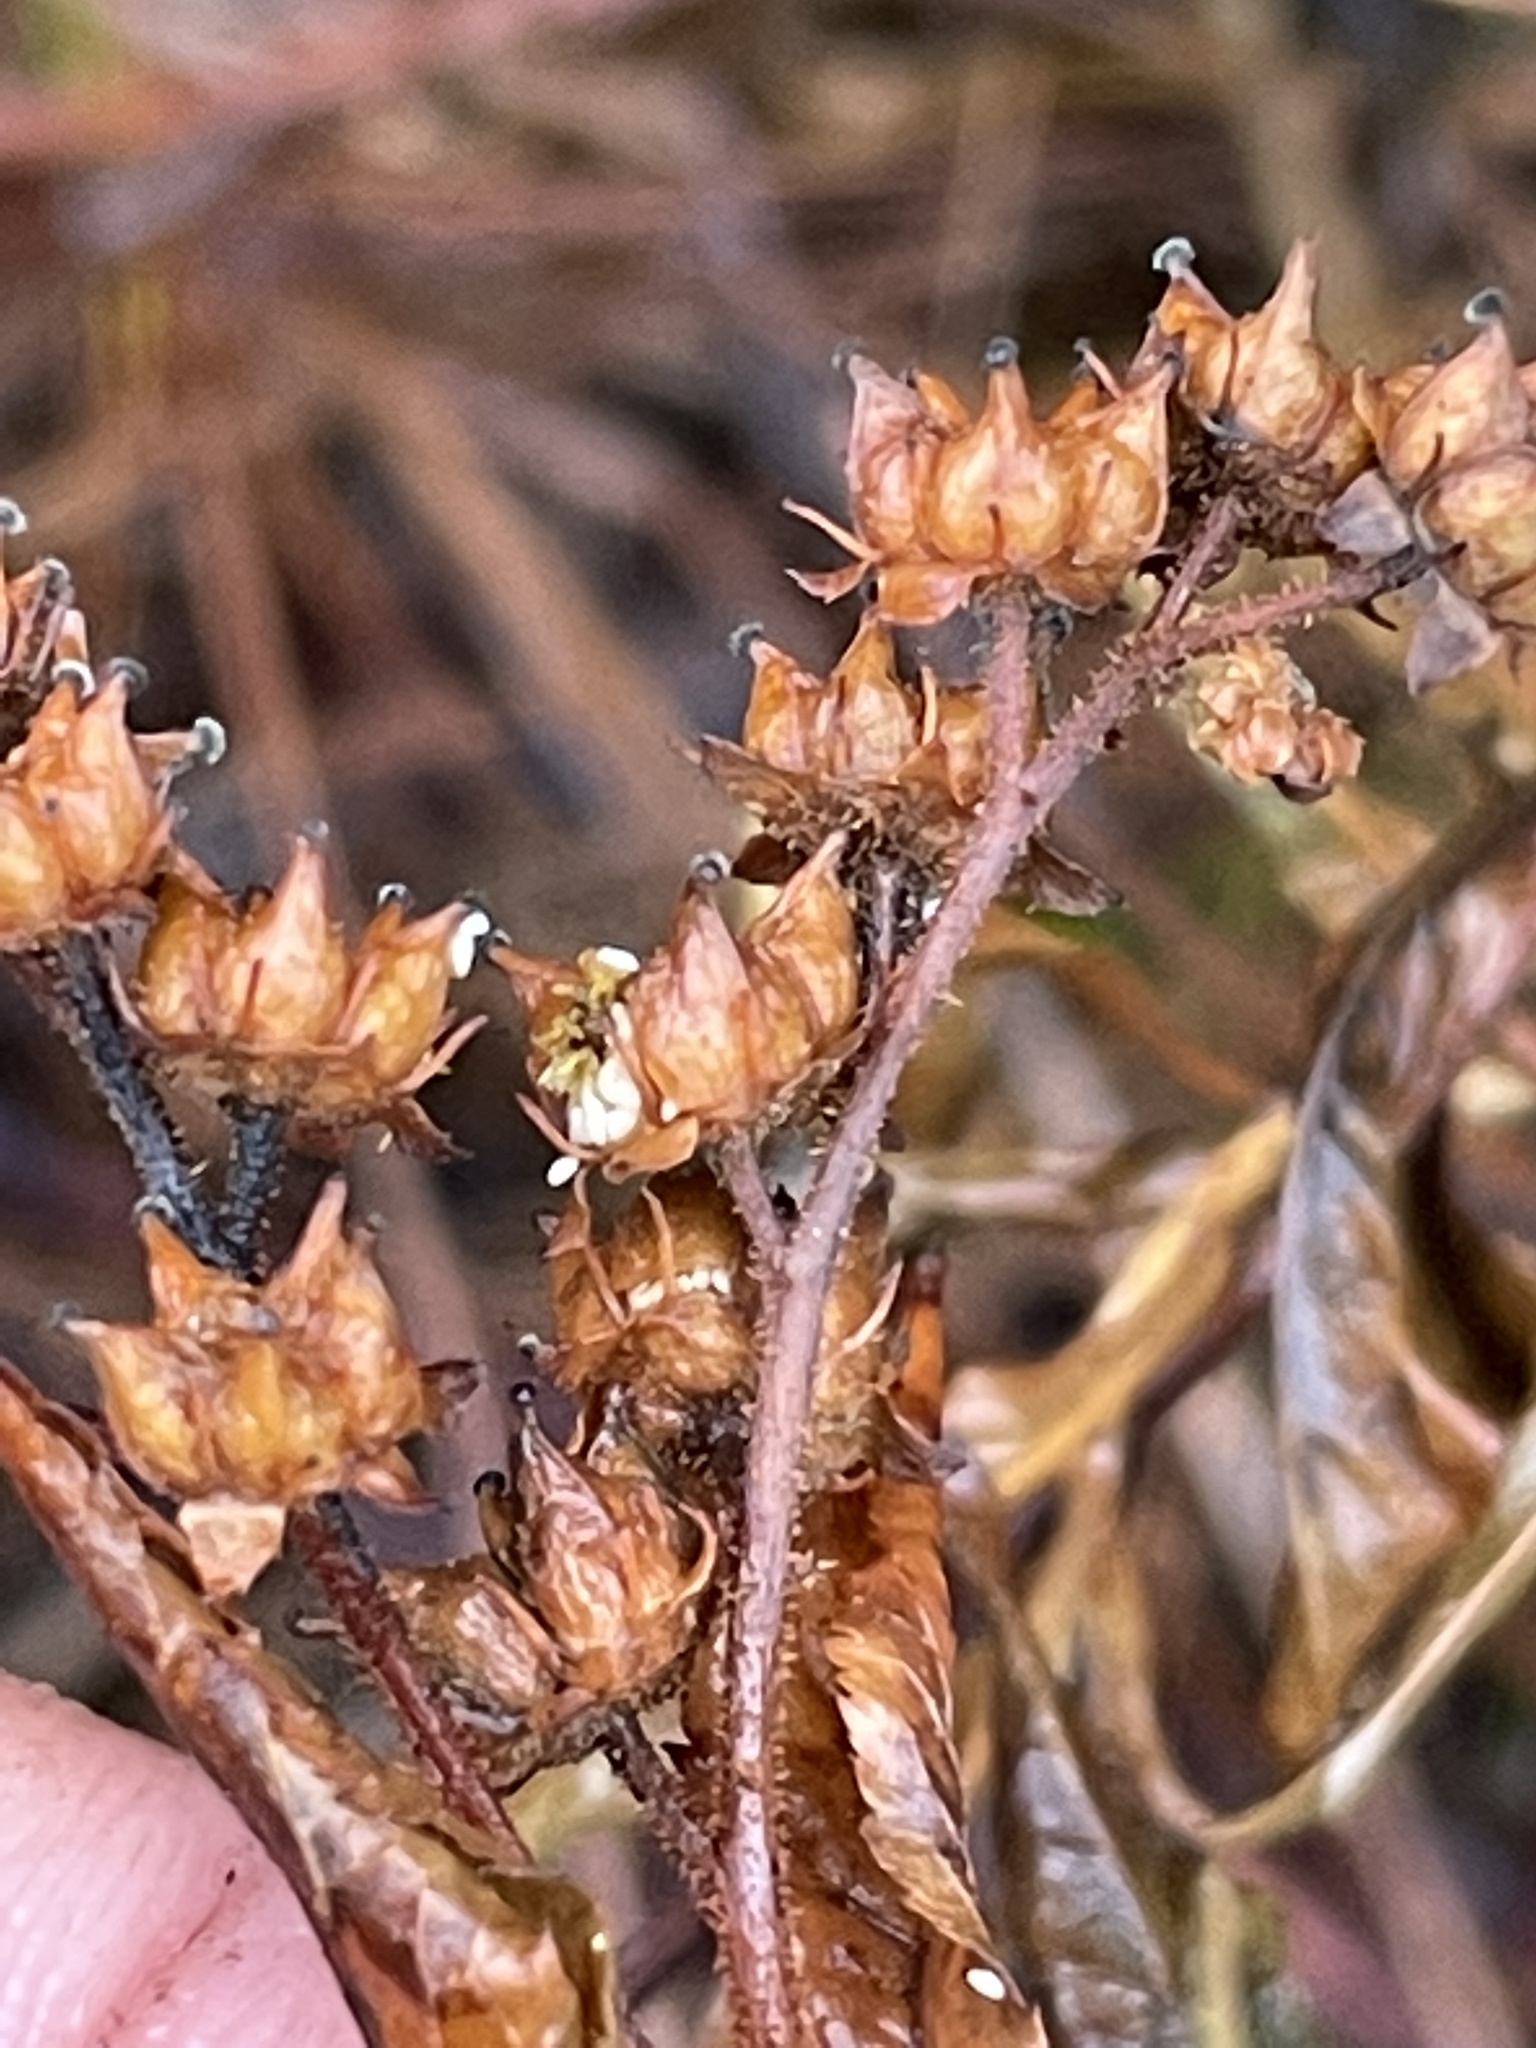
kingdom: Plantae
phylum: Tracheophyta
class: Magnoliopsida
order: Saxifragales
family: Penthoraceae
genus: Penthorum
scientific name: Penthorum sedoides
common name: Ditch stonecrop
